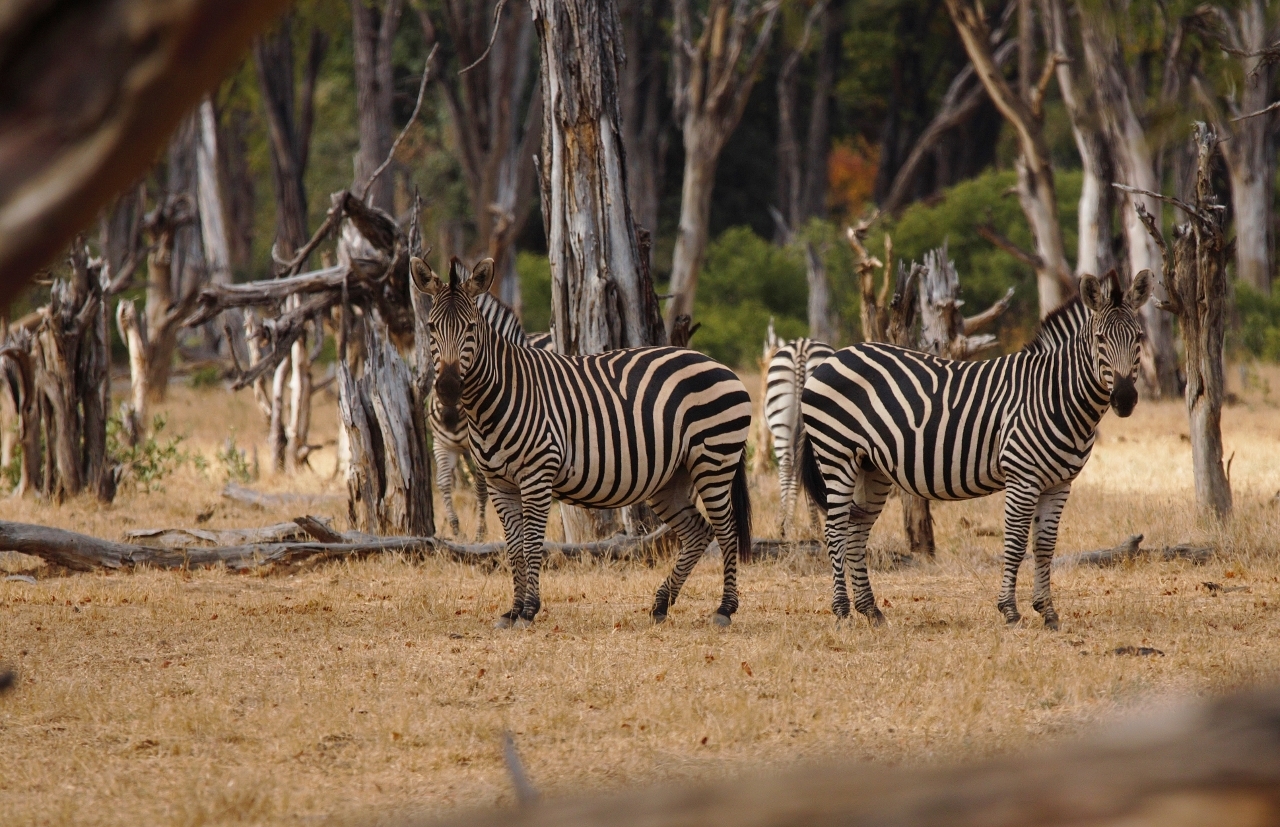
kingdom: Animalia
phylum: Chordata
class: Mammalia
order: Perissodactyla
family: Equidae
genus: Equus
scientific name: Equus quagga
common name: Plains zebra
